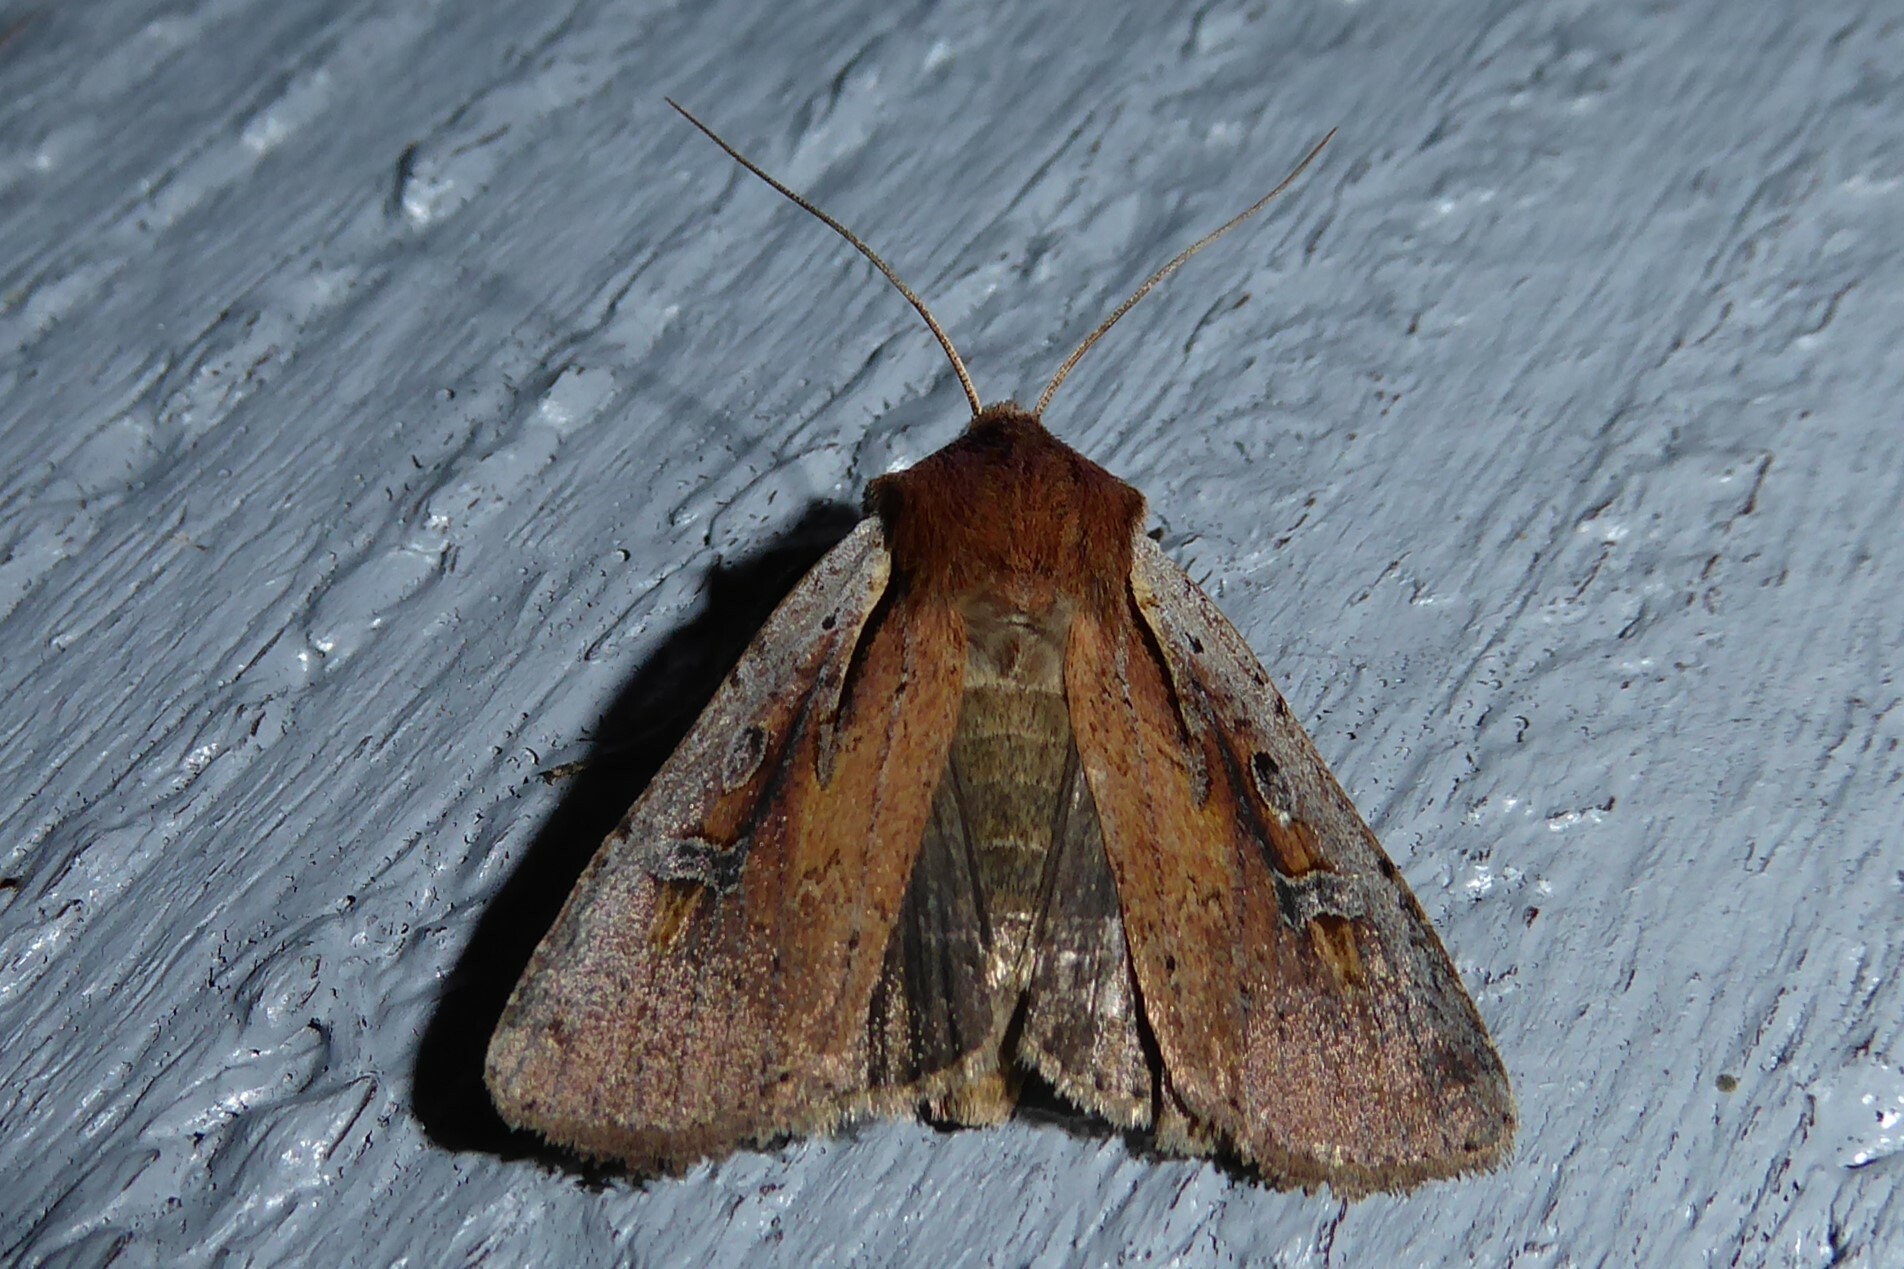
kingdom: Animalia
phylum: Arthropoda
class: Insecta
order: Lepidoptera
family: Noctuidae
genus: Ichneutica
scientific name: Ichneutica atristriga
